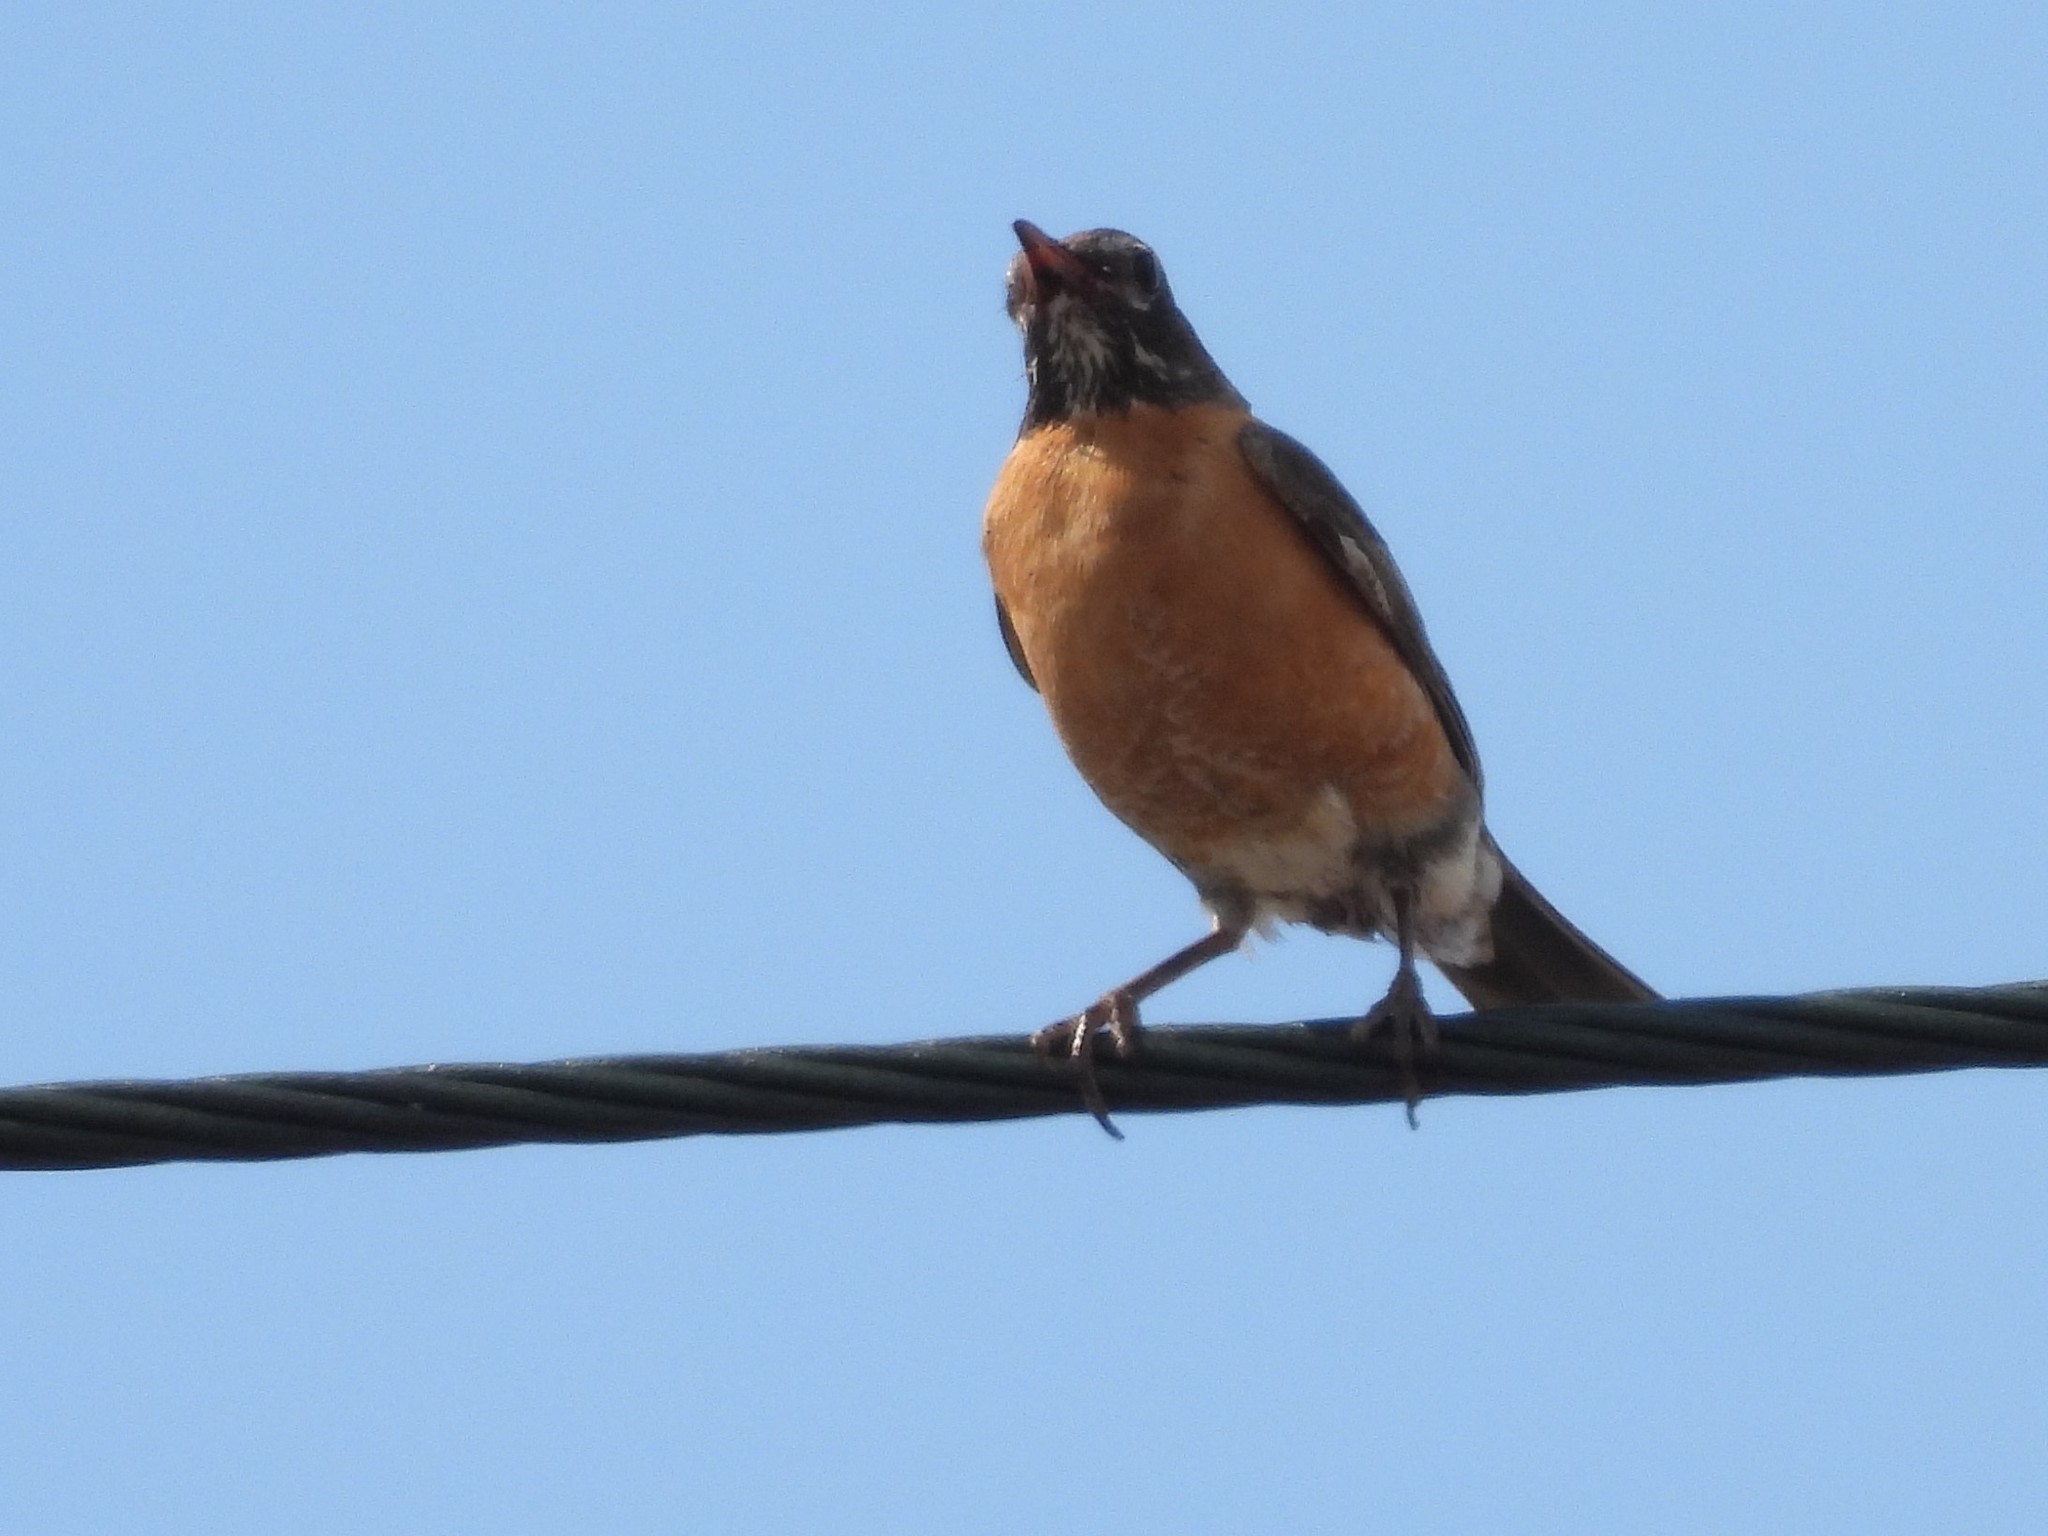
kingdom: Animalia
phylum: Chordata
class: Aves
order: Passeriformes
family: Turdidae
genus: Turdus
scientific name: Turdus migratorius
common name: American robin
